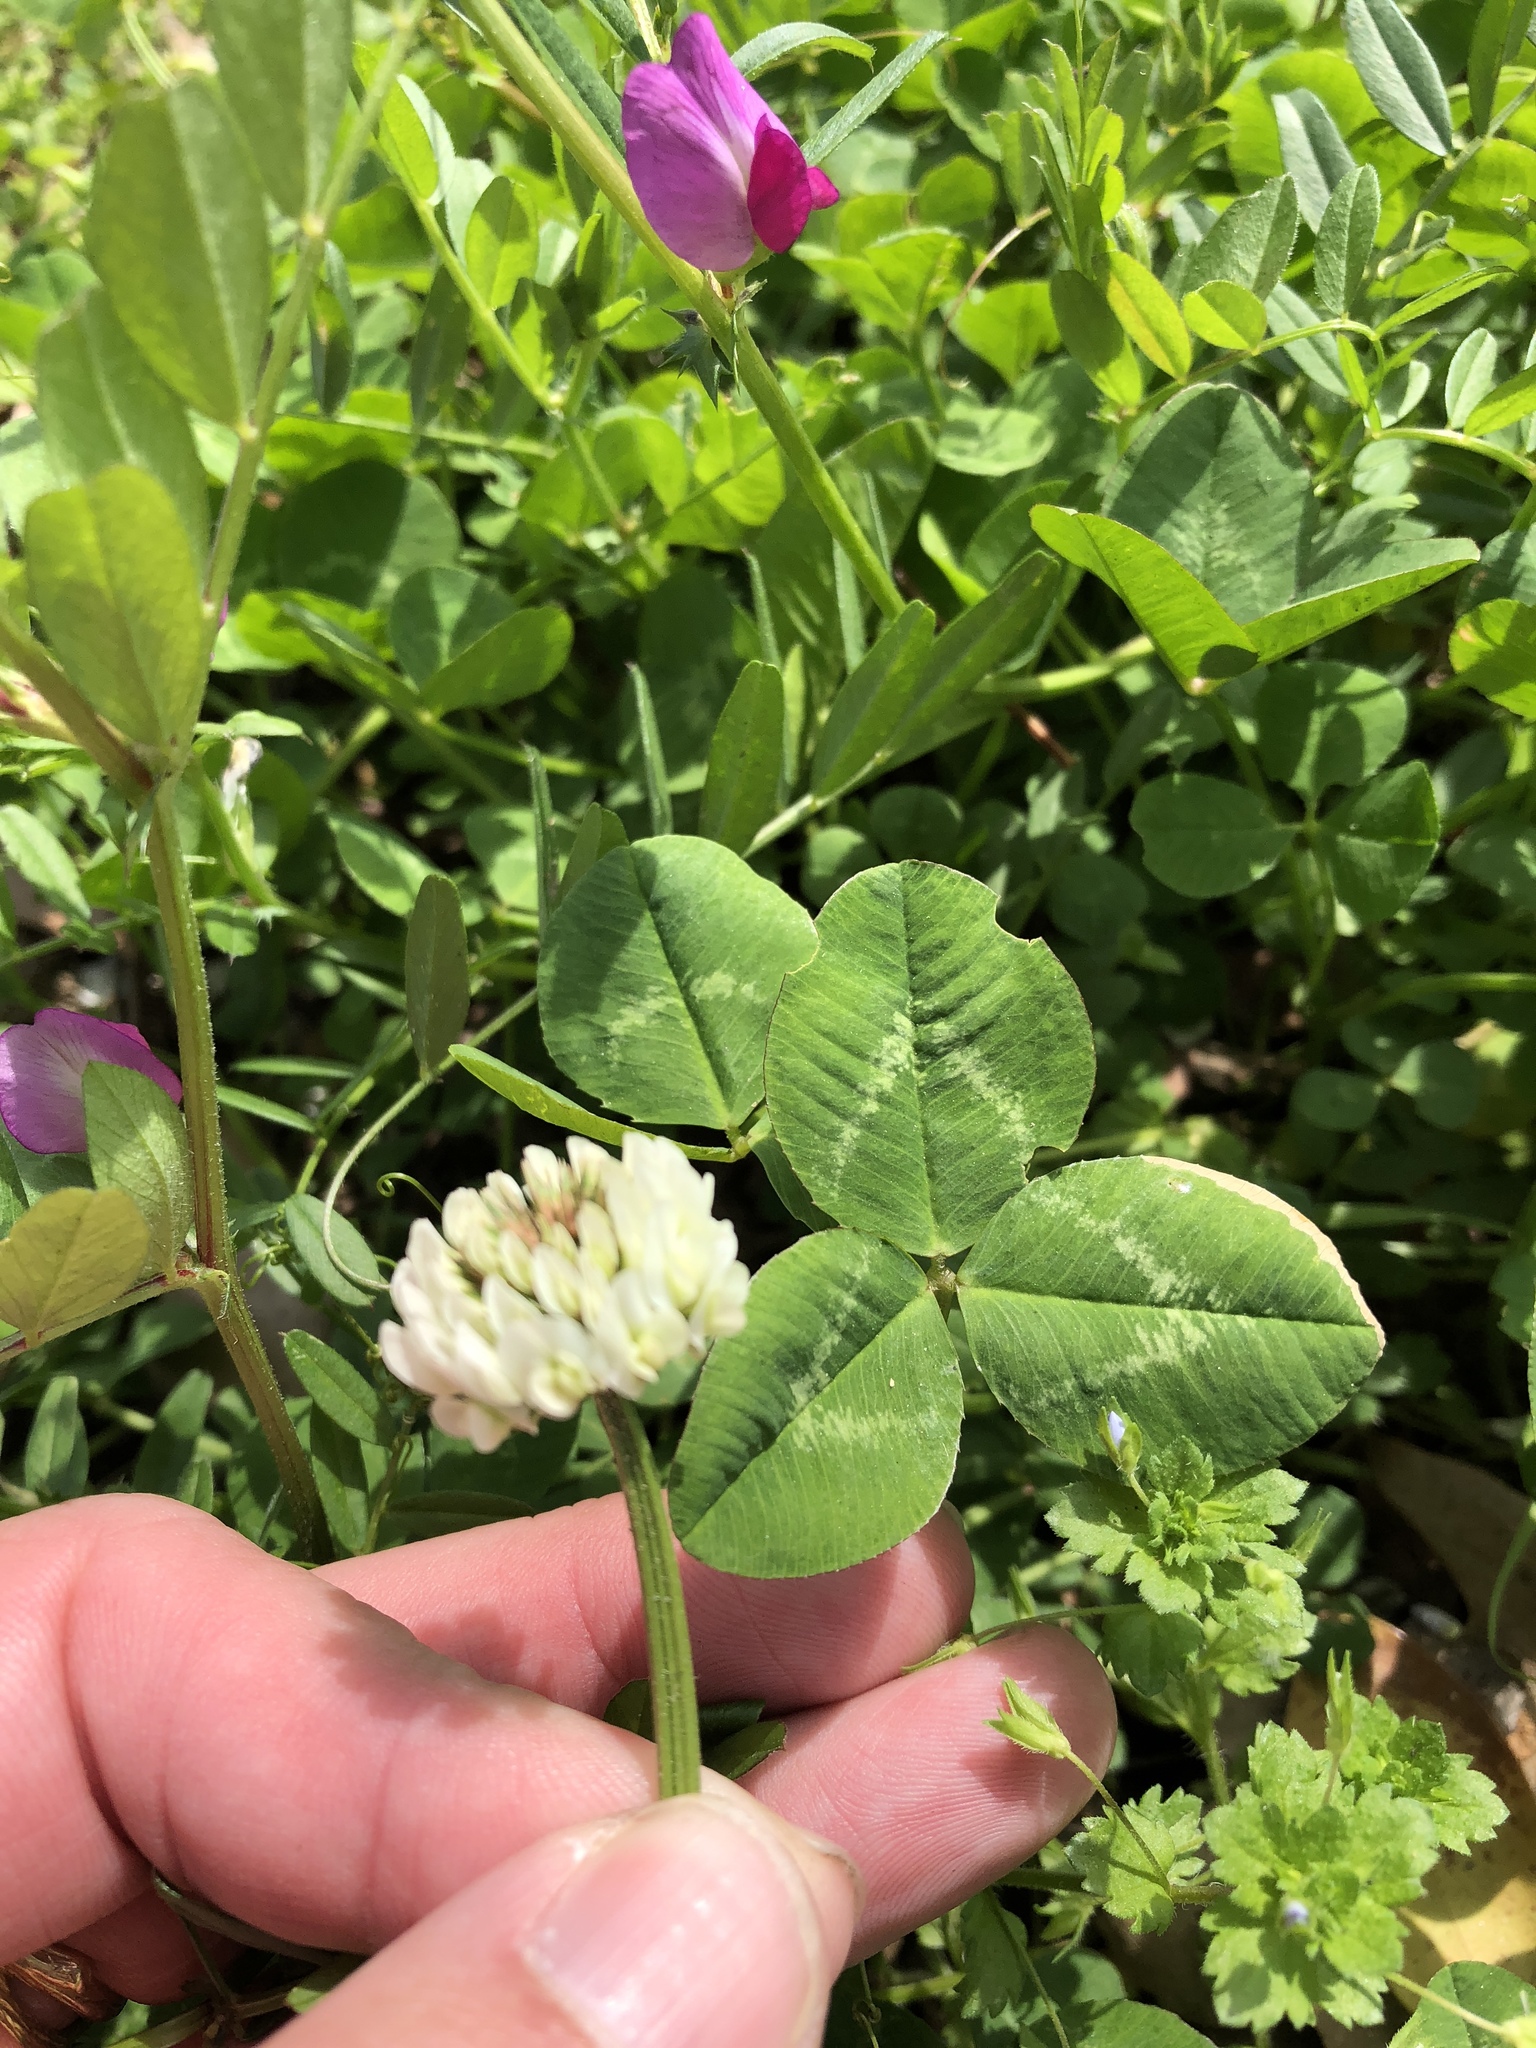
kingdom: Plantae
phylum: Tracheophyta
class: Magnoliopsida
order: Fabales
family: Fabaceae
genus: Trifolium
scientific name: Trifolium repens
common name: White clover
